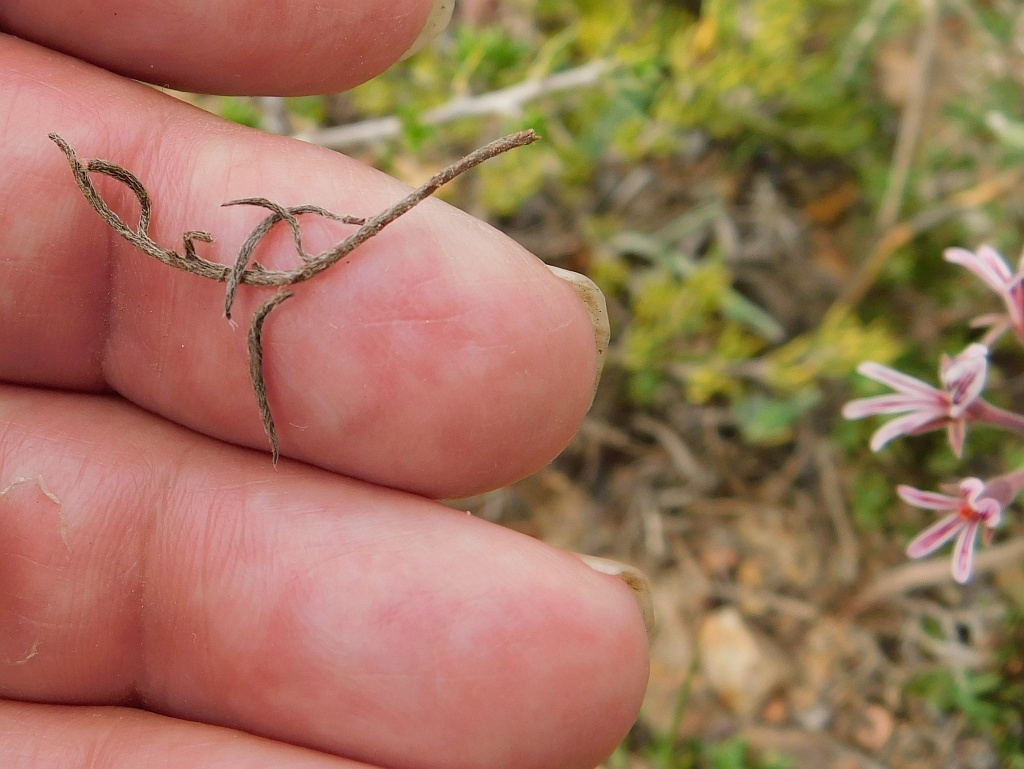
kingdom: Plantae
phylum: Tracheophyta
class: Magnoliopsida
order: Geraniales
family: Geraniaceae
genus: Pelargonium
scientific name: Pelargonium caledonicum
